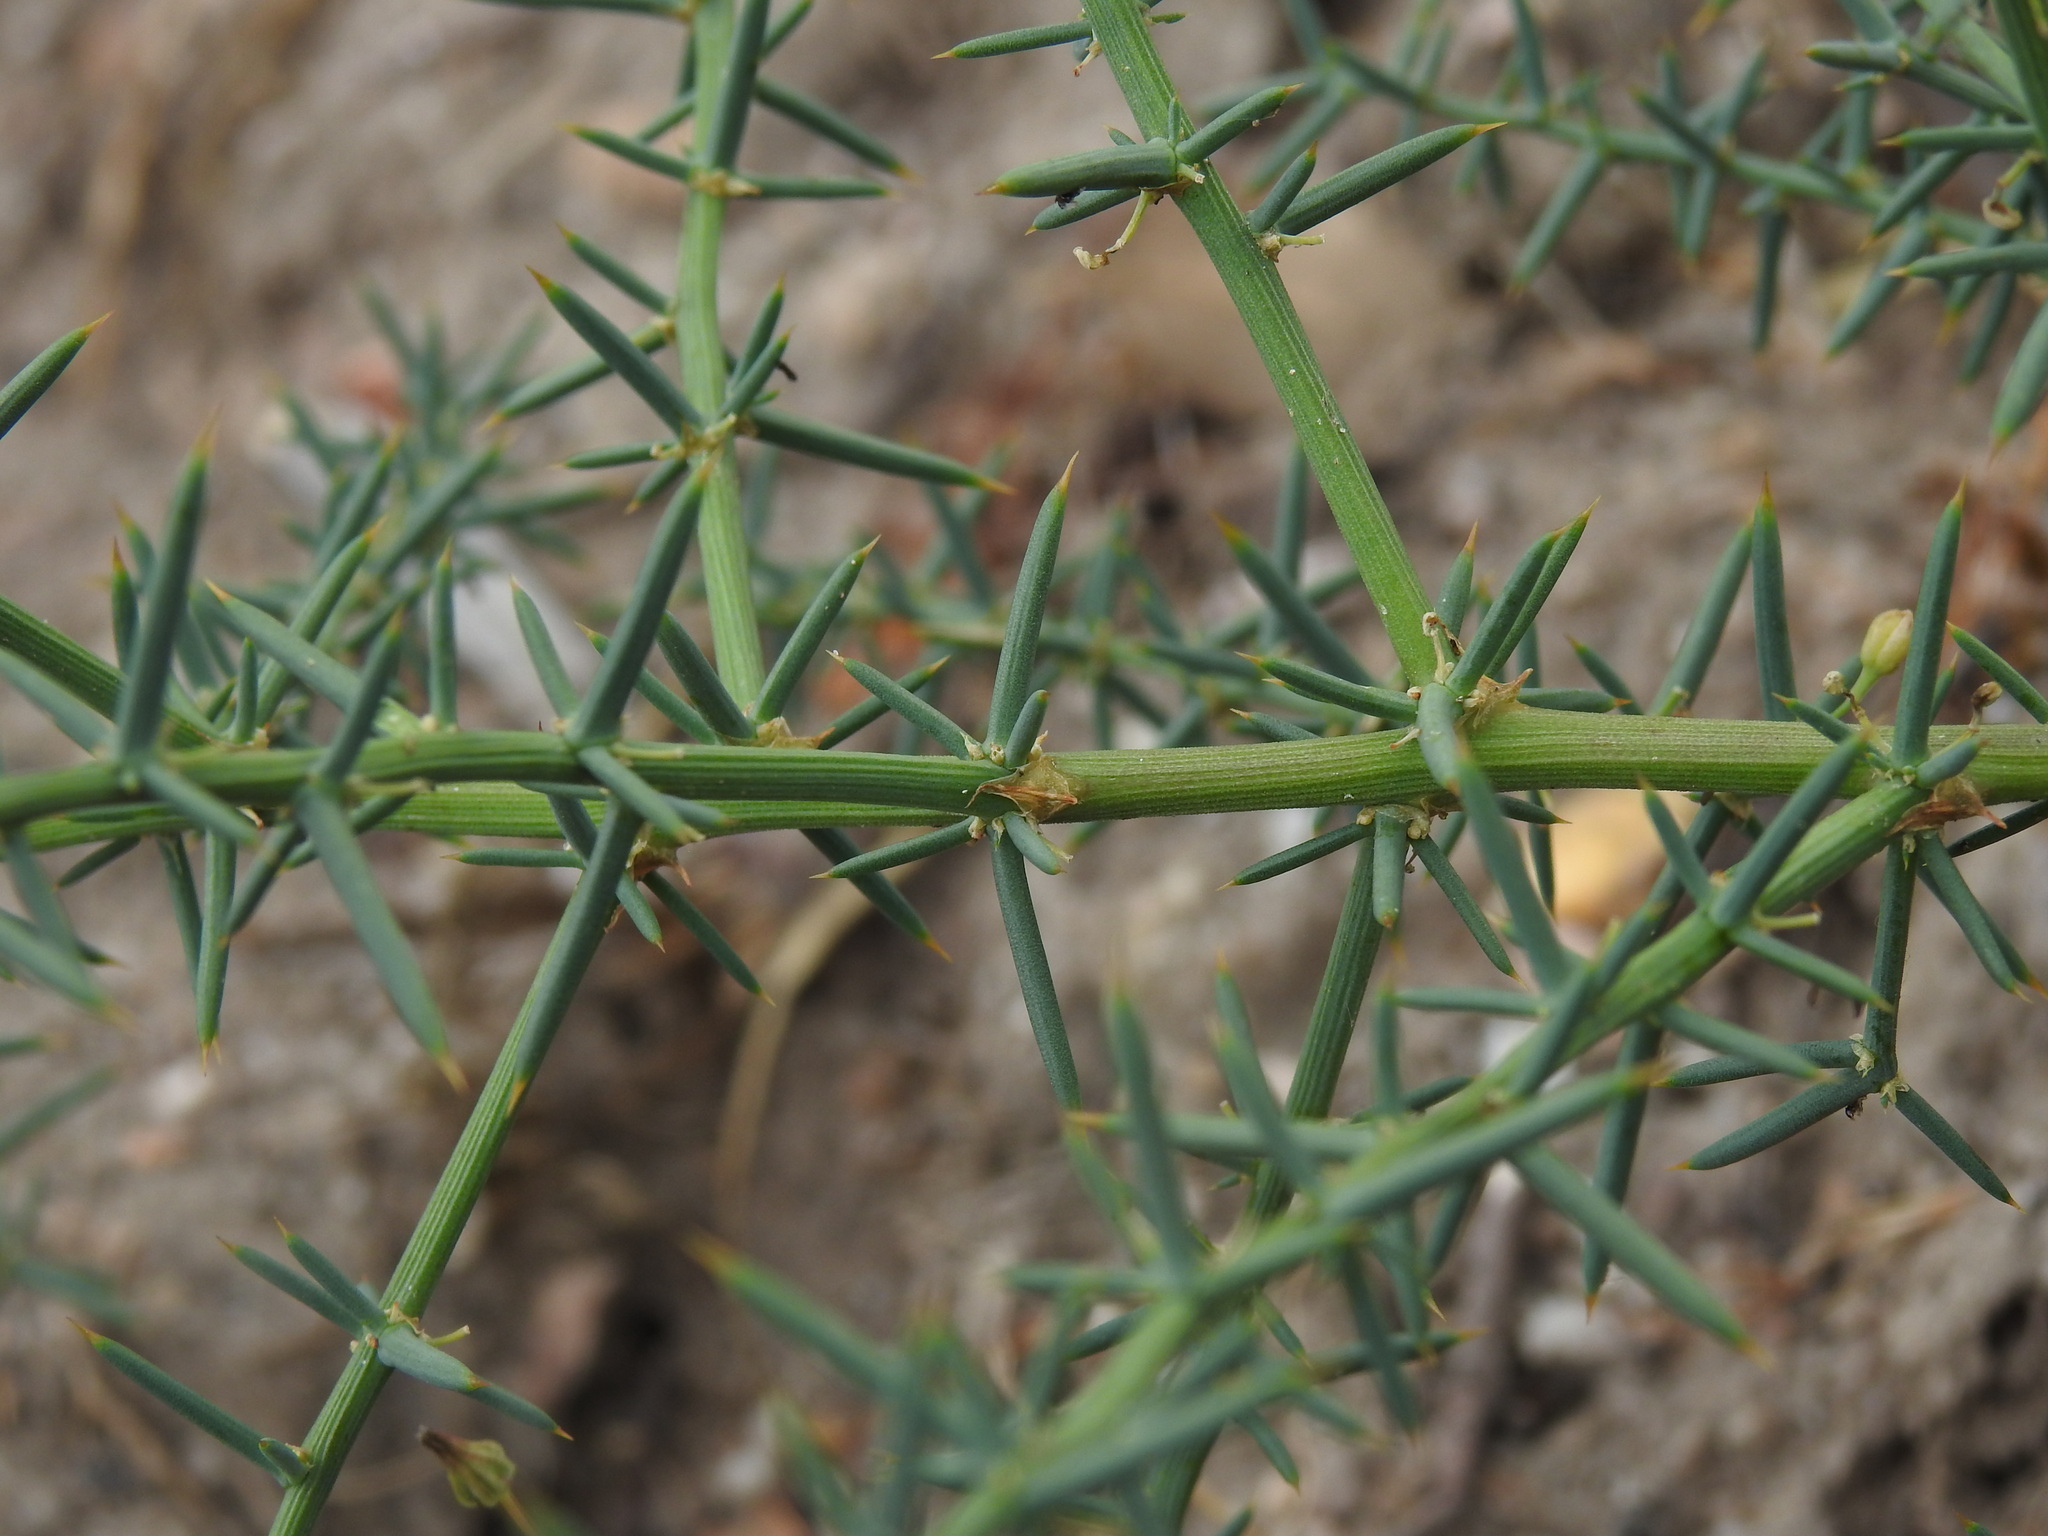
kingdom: Plantae
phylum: Tracheophyta
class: Liliopsida
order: Asparagales
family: Asparagaceae
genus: Asparagus
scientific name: Asparagus aphyllus
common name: Mediterranean asparagus
